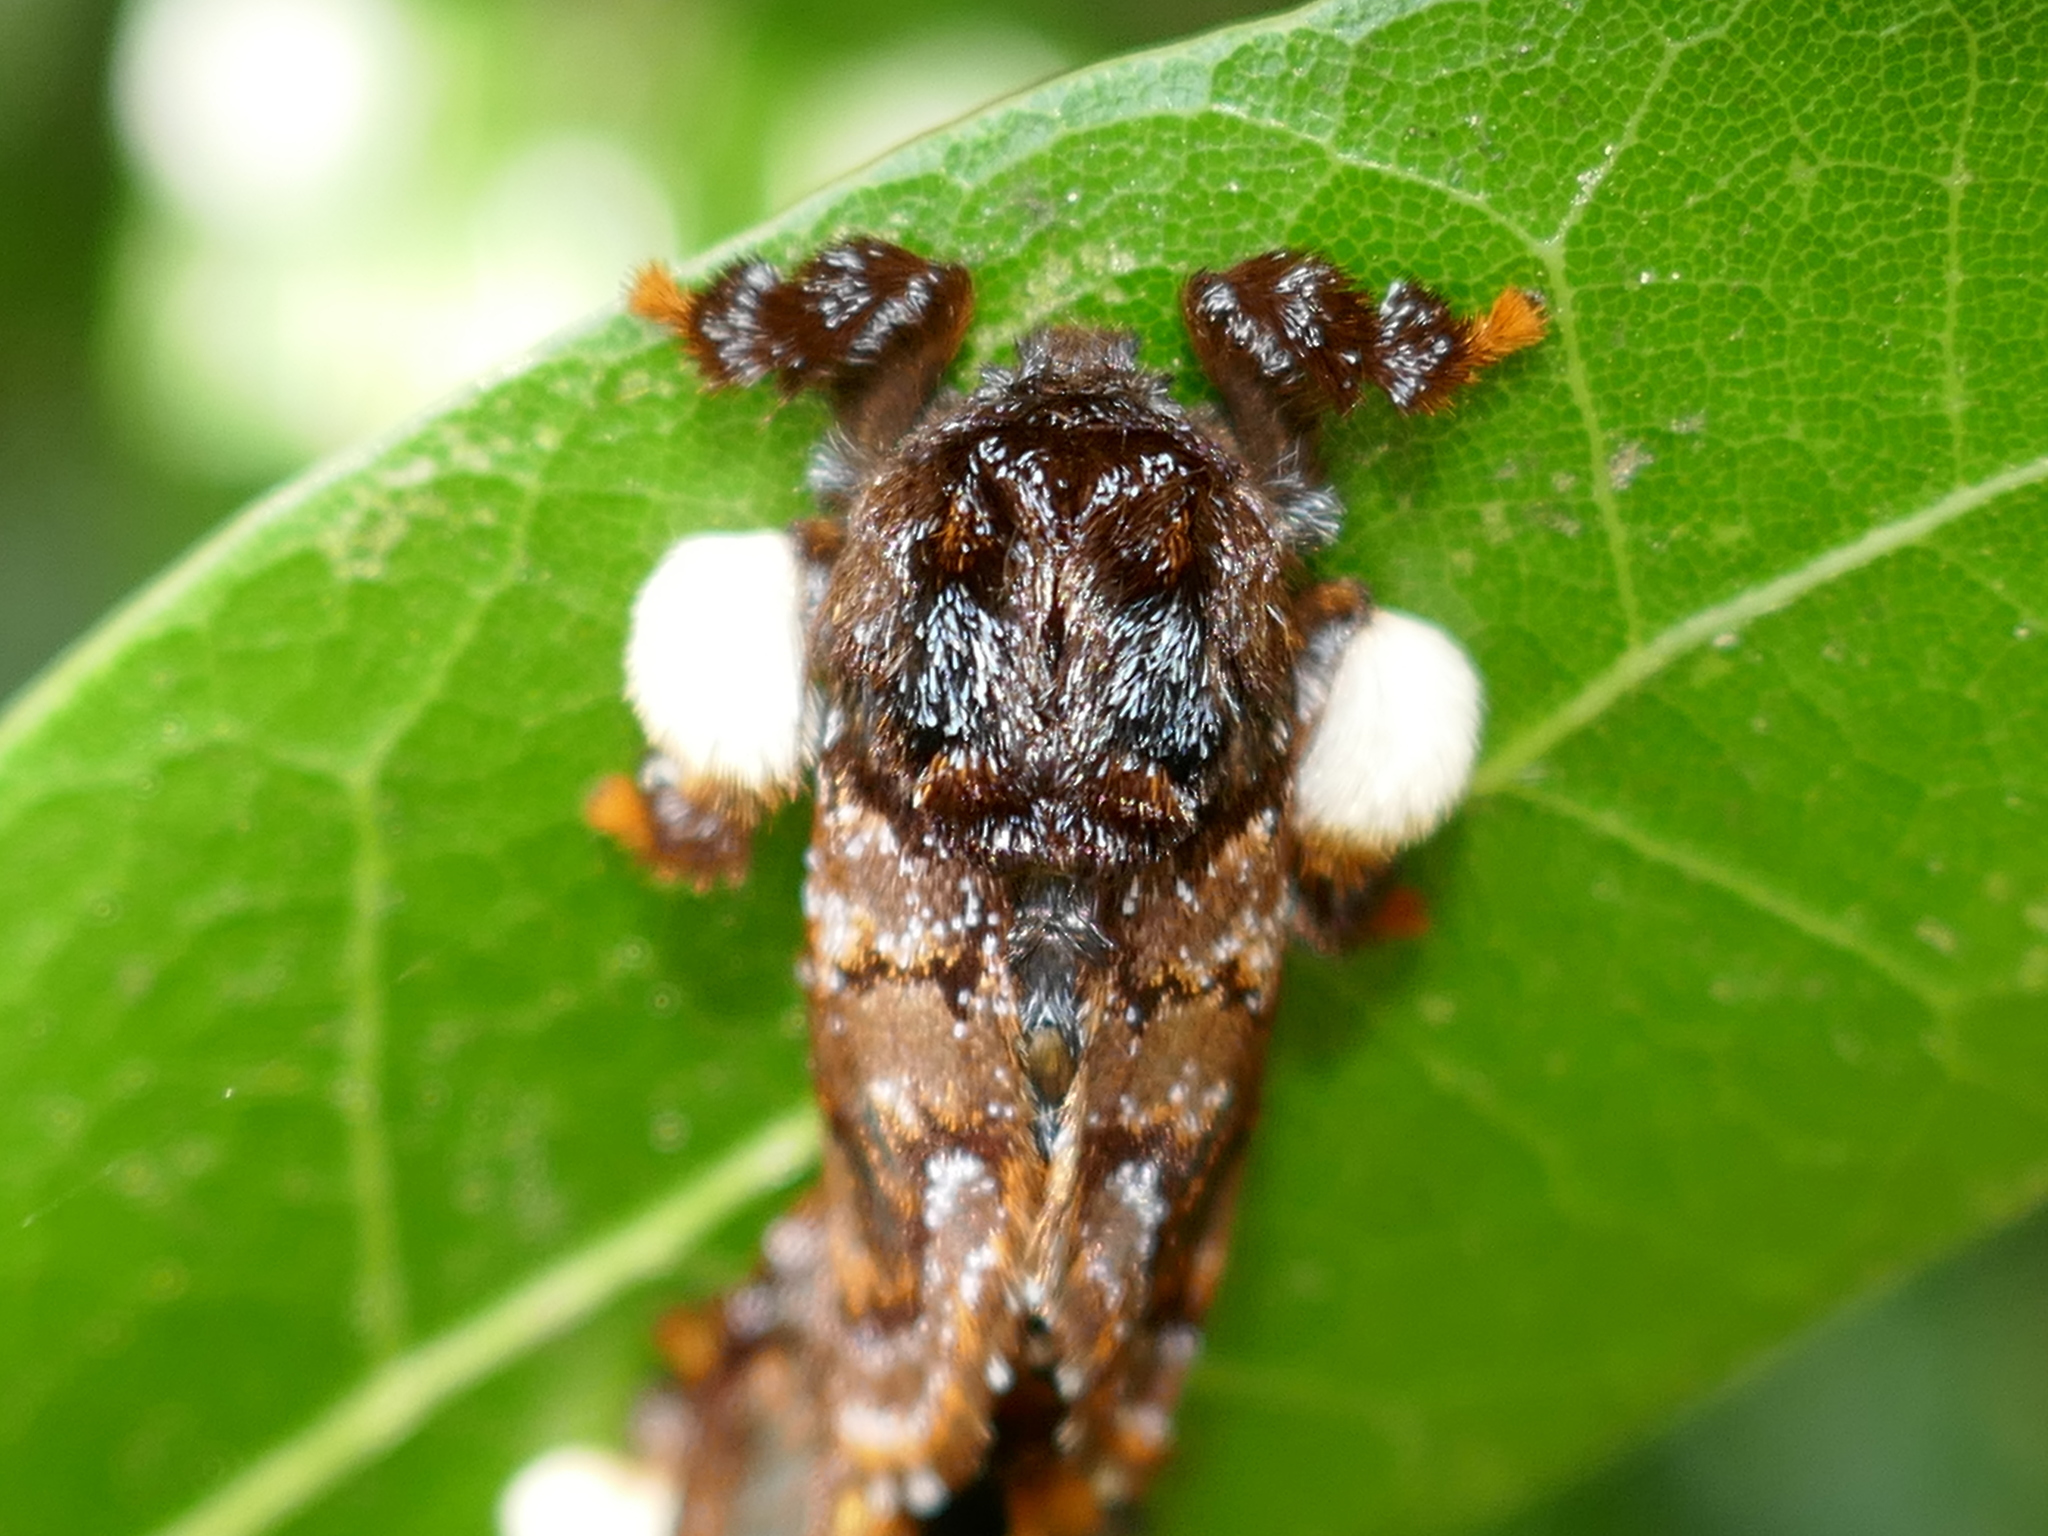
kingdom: Animalia
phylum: Arthropoda
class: Insecta
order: Lepidoptera
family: Limacodidae
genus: Phobetron
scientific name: Phobetron pithecium
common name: Hag moth
